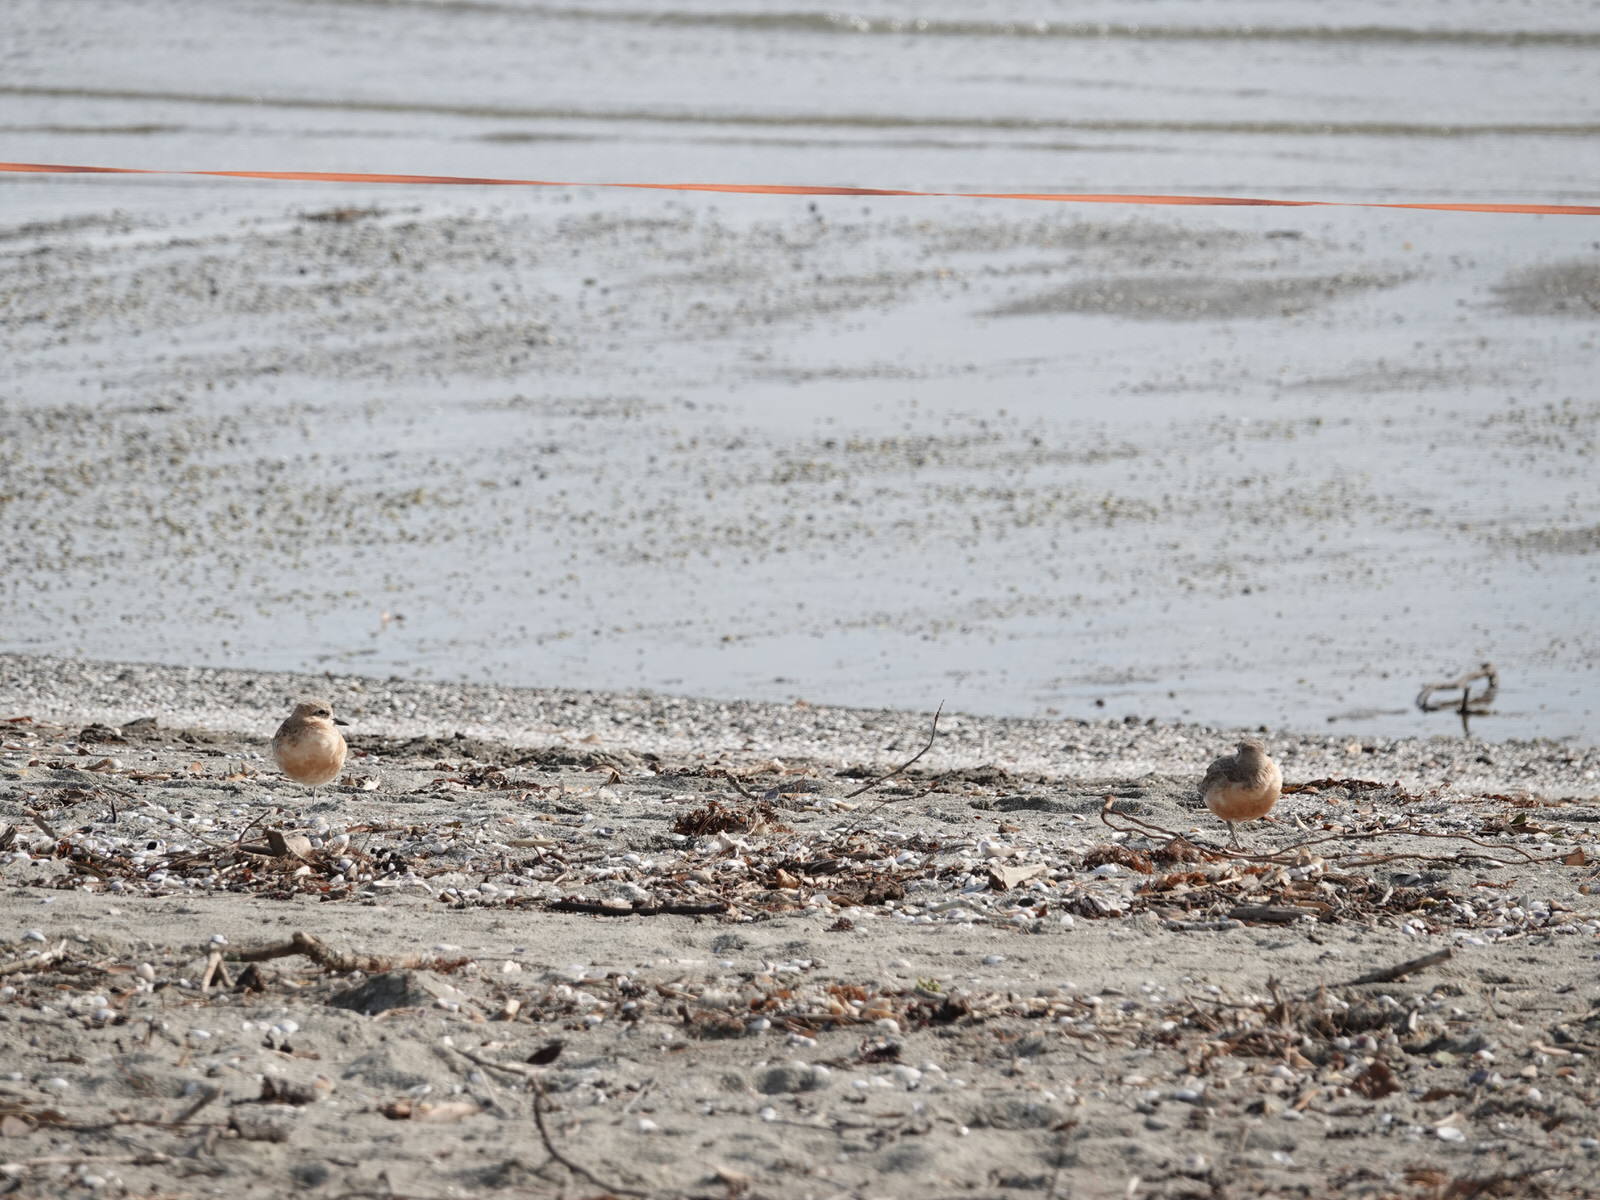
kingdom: Animalia
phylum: Chordata
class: Aves
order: Charadriiformes
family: Charadriidae
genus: Anarhynchus
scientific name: Anarhynchus
